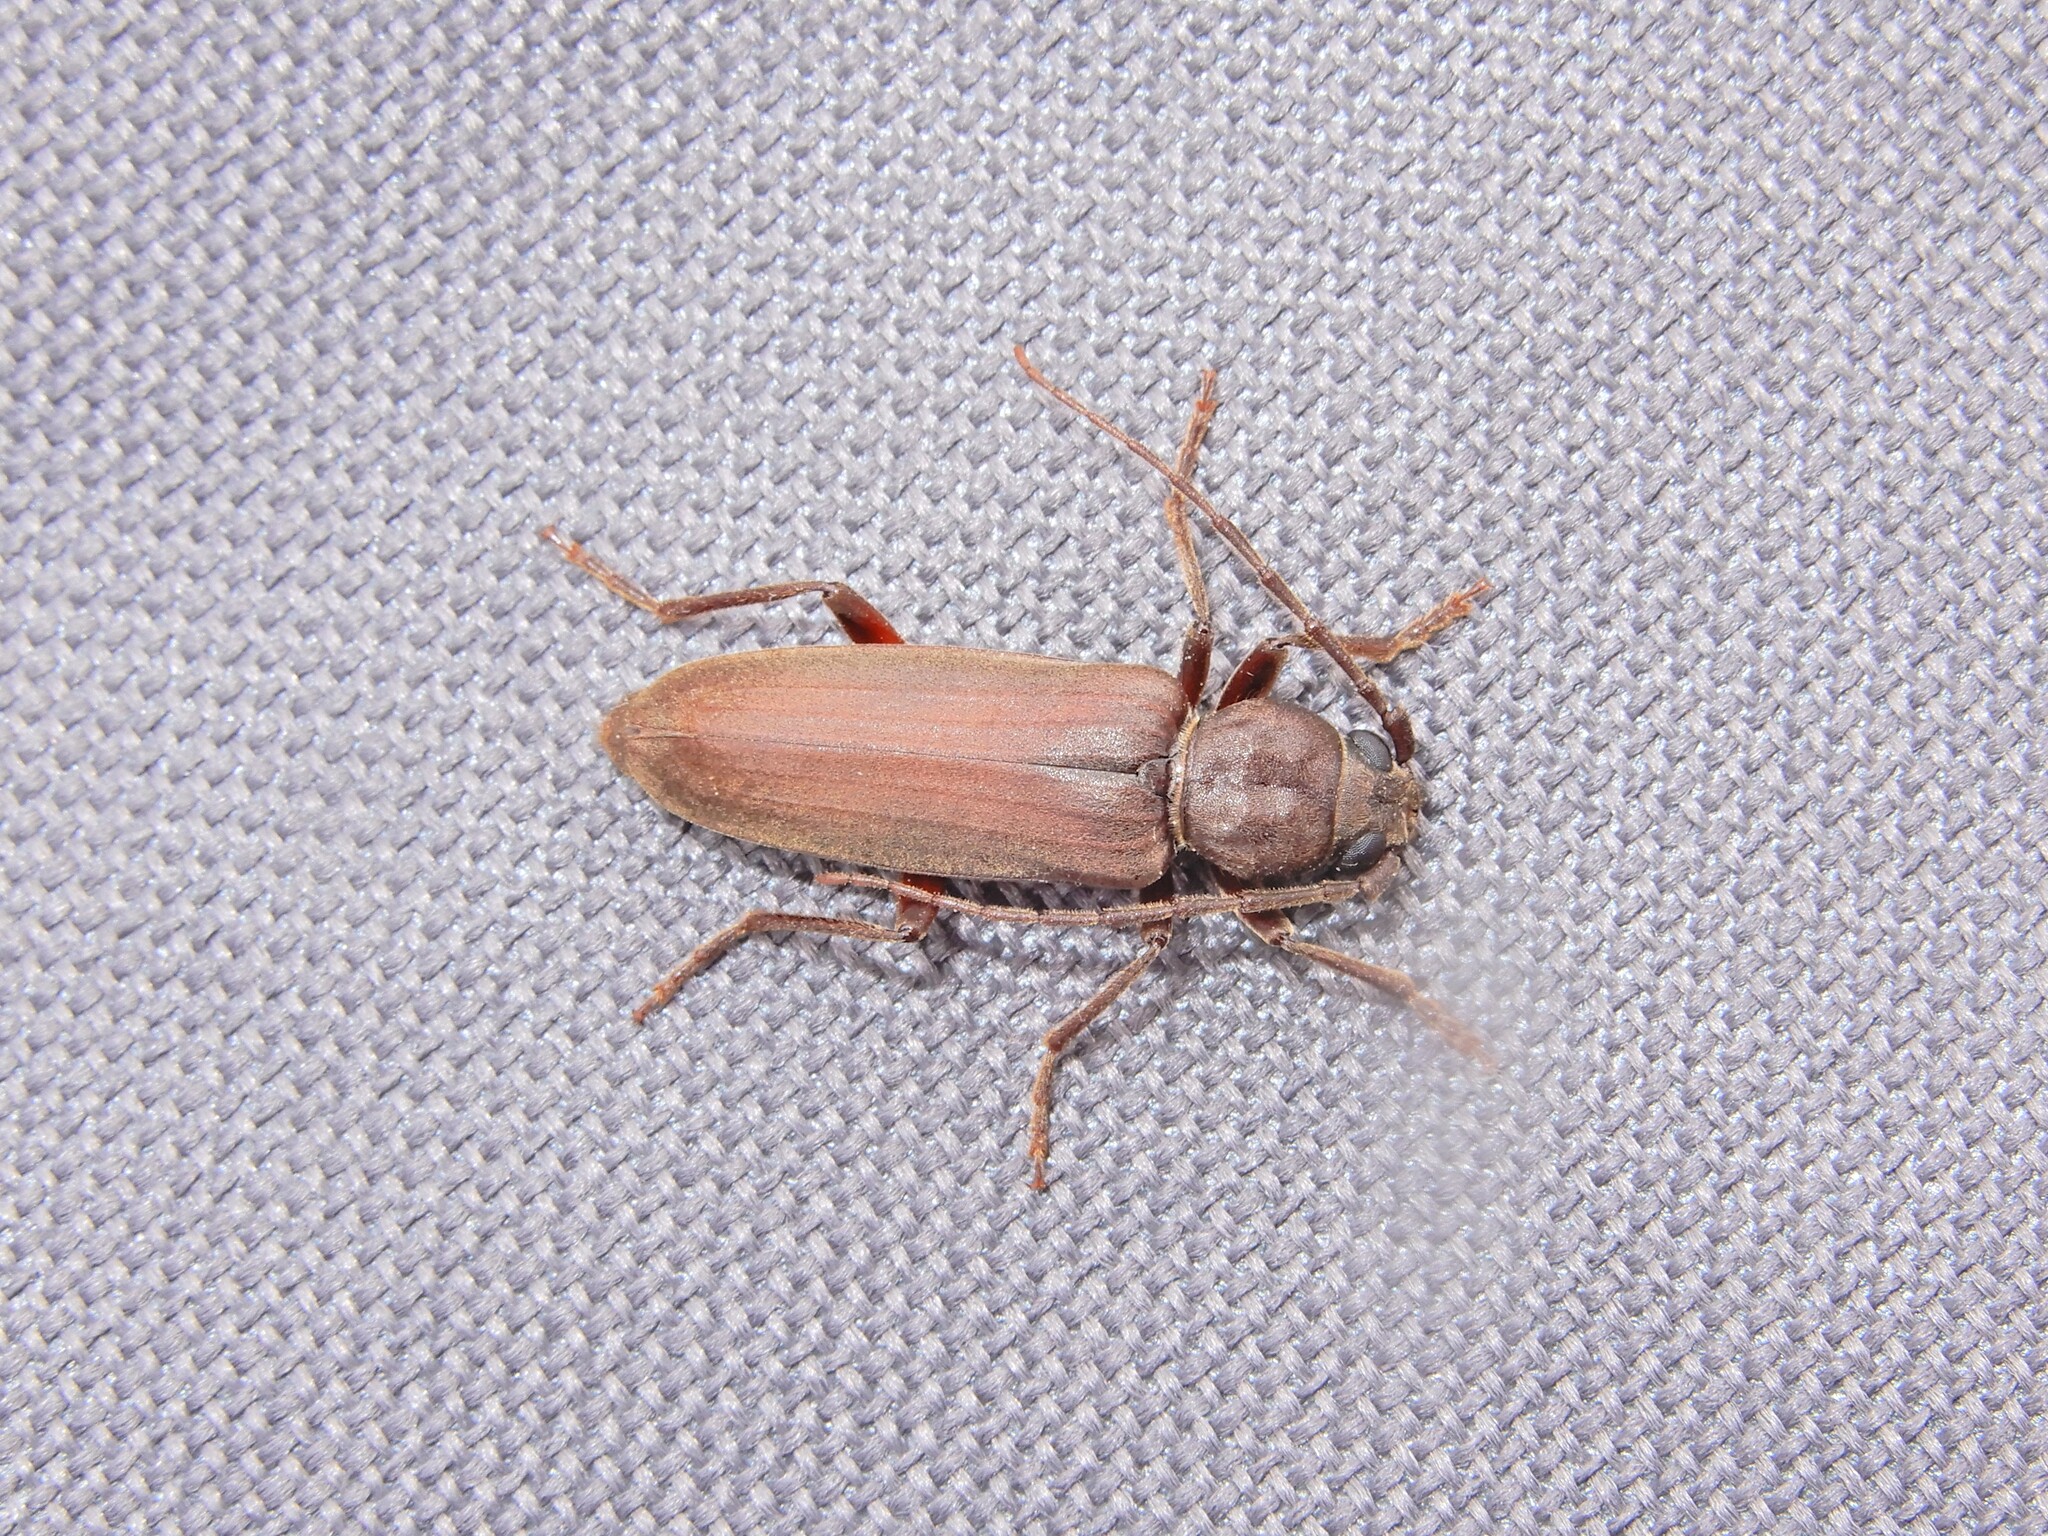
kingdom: Animalia
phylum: Arthropoda
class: Insecta
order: Coleoptera
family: Cerambycidae
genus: Arhopalus
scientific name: Arhopalus ferus
